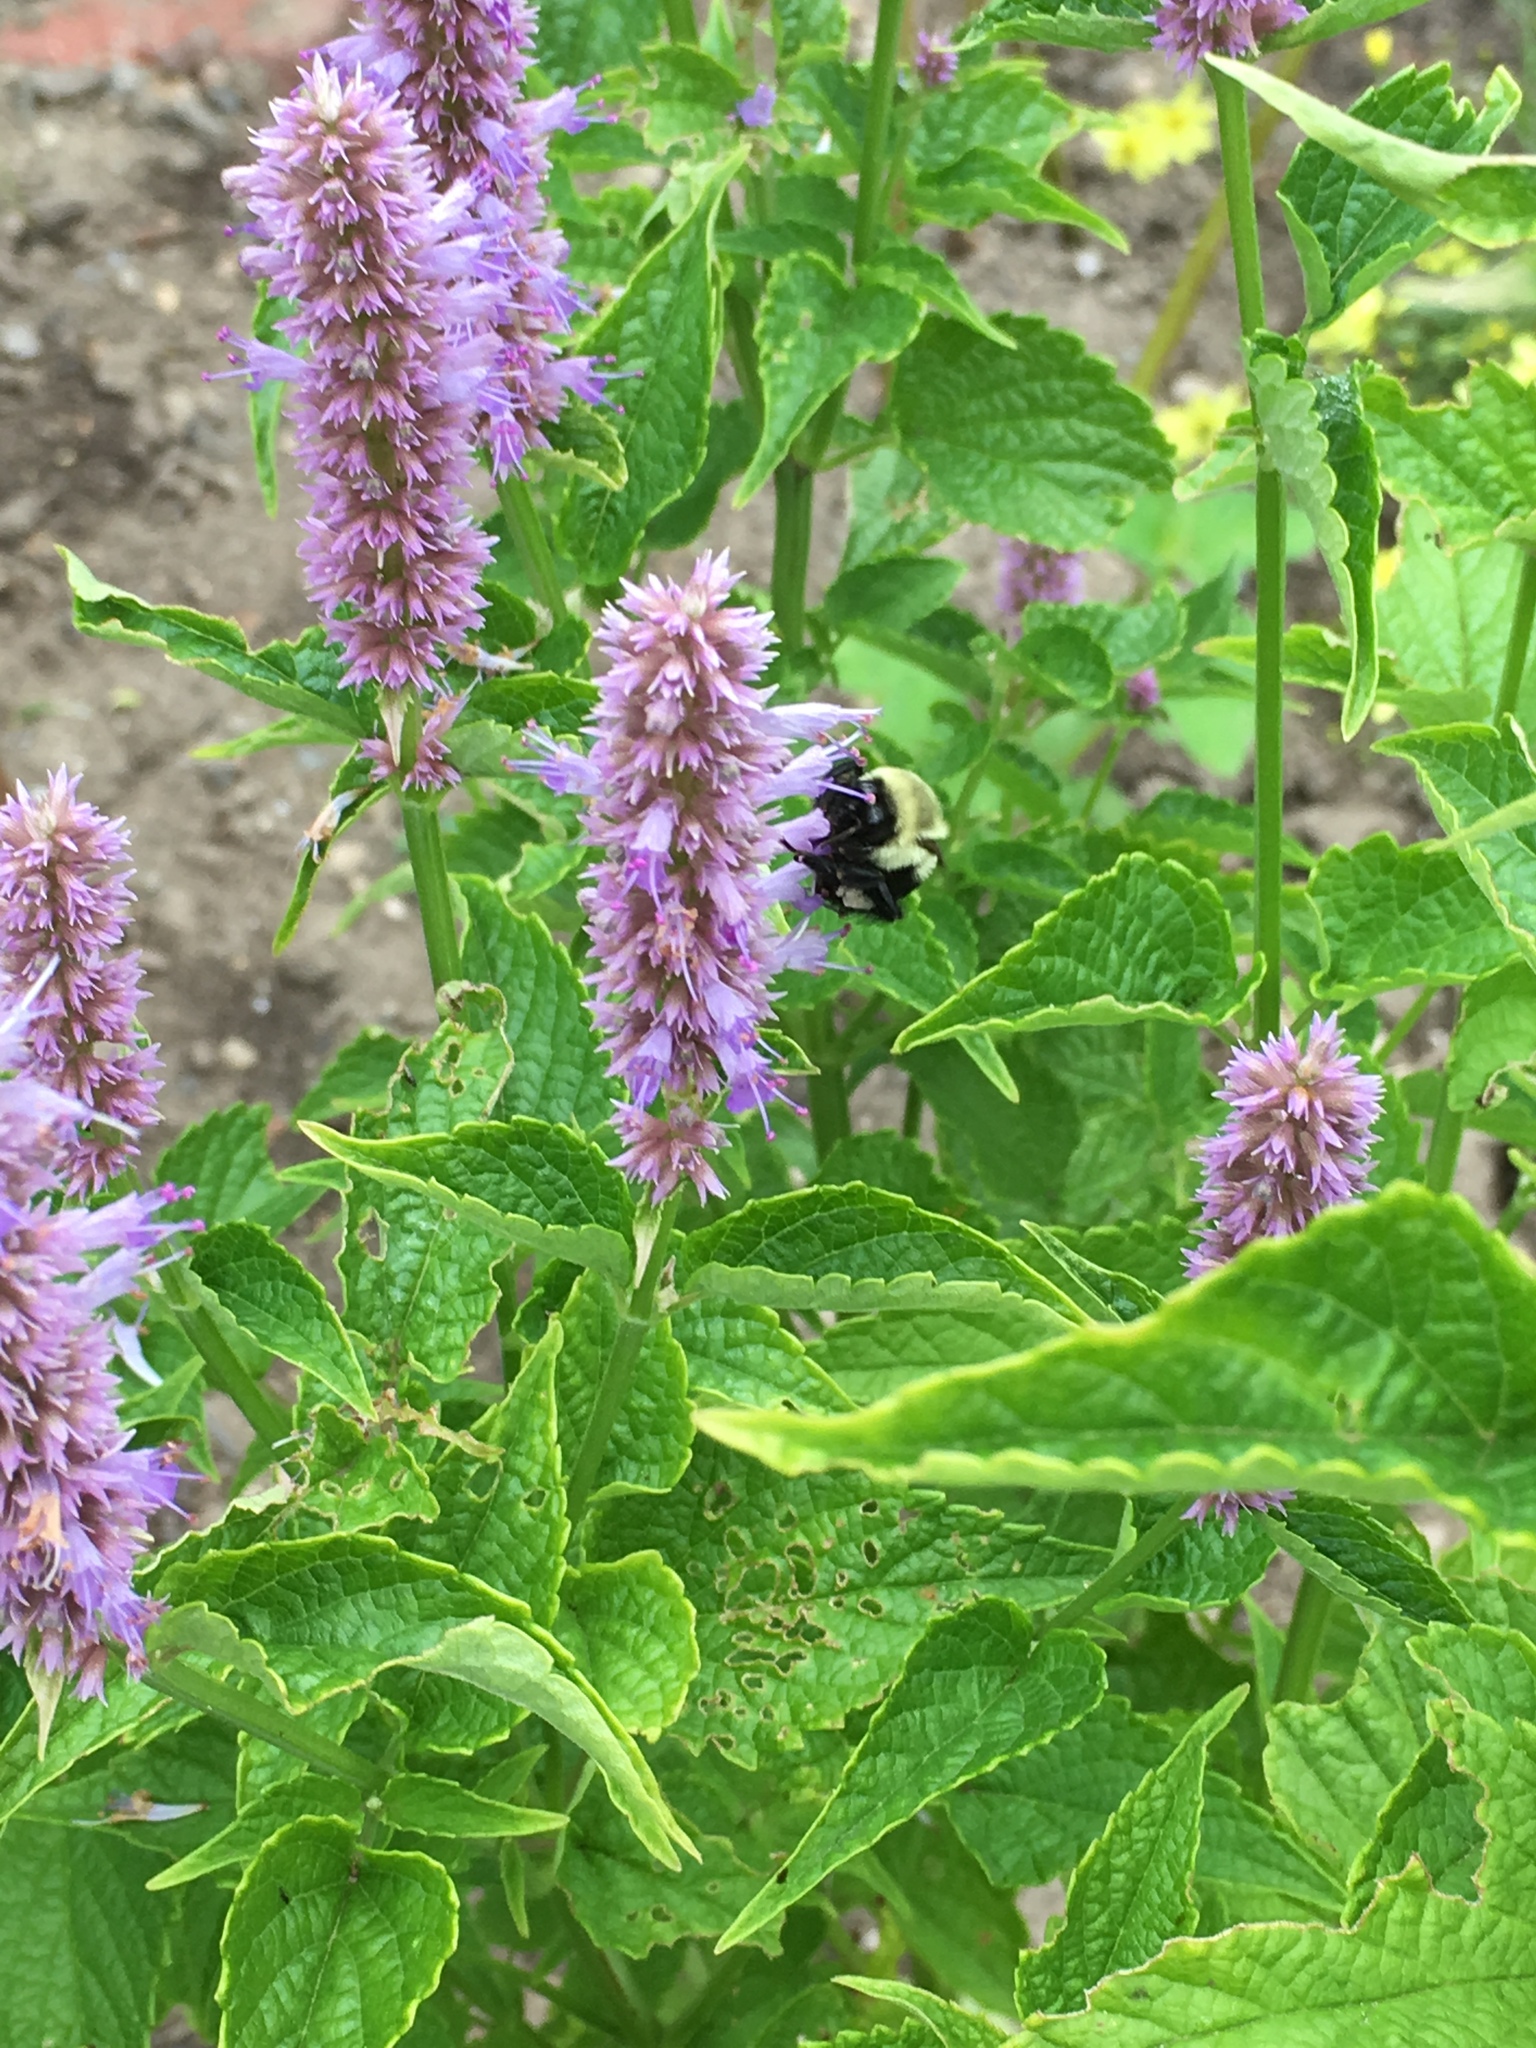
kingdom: Animalia
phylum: Arthropoda
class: Insecta
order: Hymenoptera
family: Apidae
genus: Bombus
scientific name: Bombus impatiens
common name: Common eastern bumble bee
